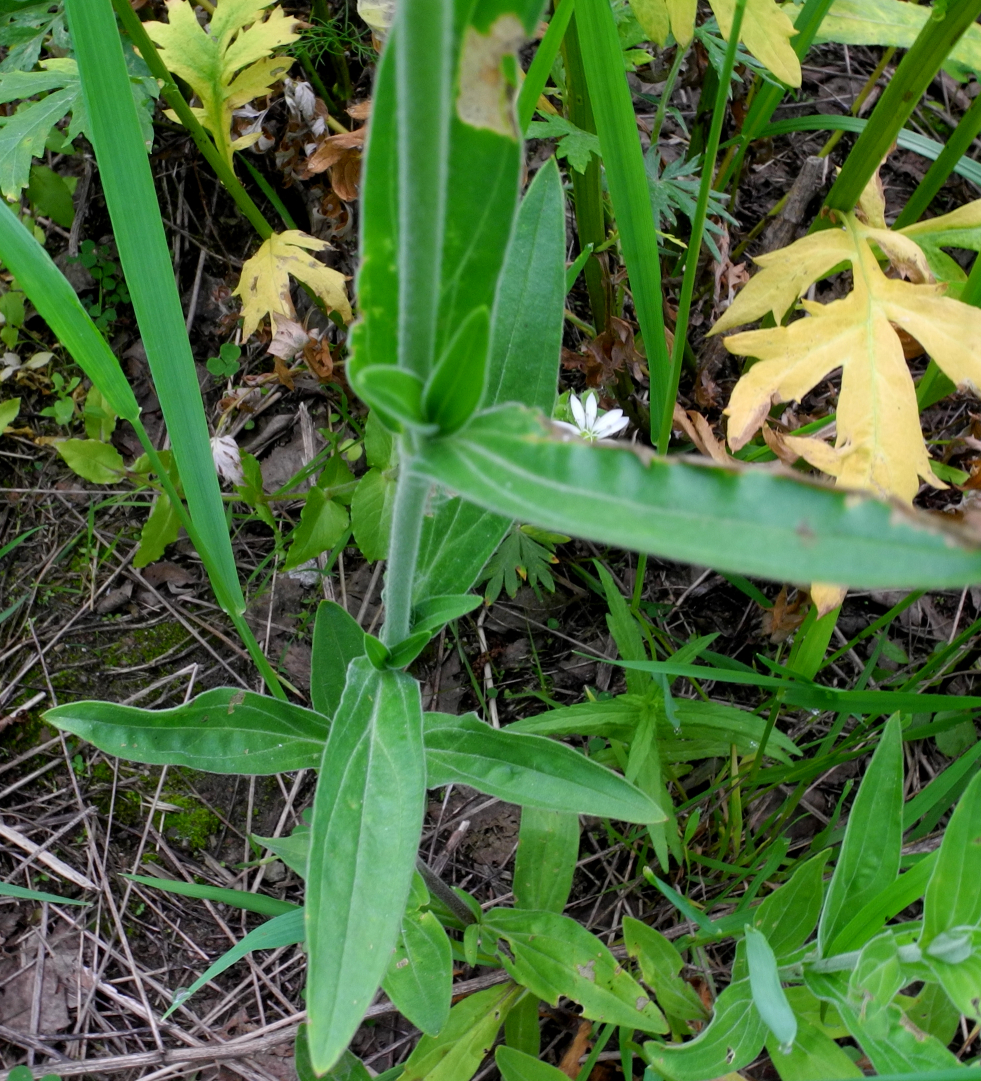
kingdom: Plantae
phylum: Tracheophyta
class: Magnoliopsida
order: Caryophyllales
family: Caryophyllaceae
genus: Silene
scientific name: Silene latifolia
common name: White campion
